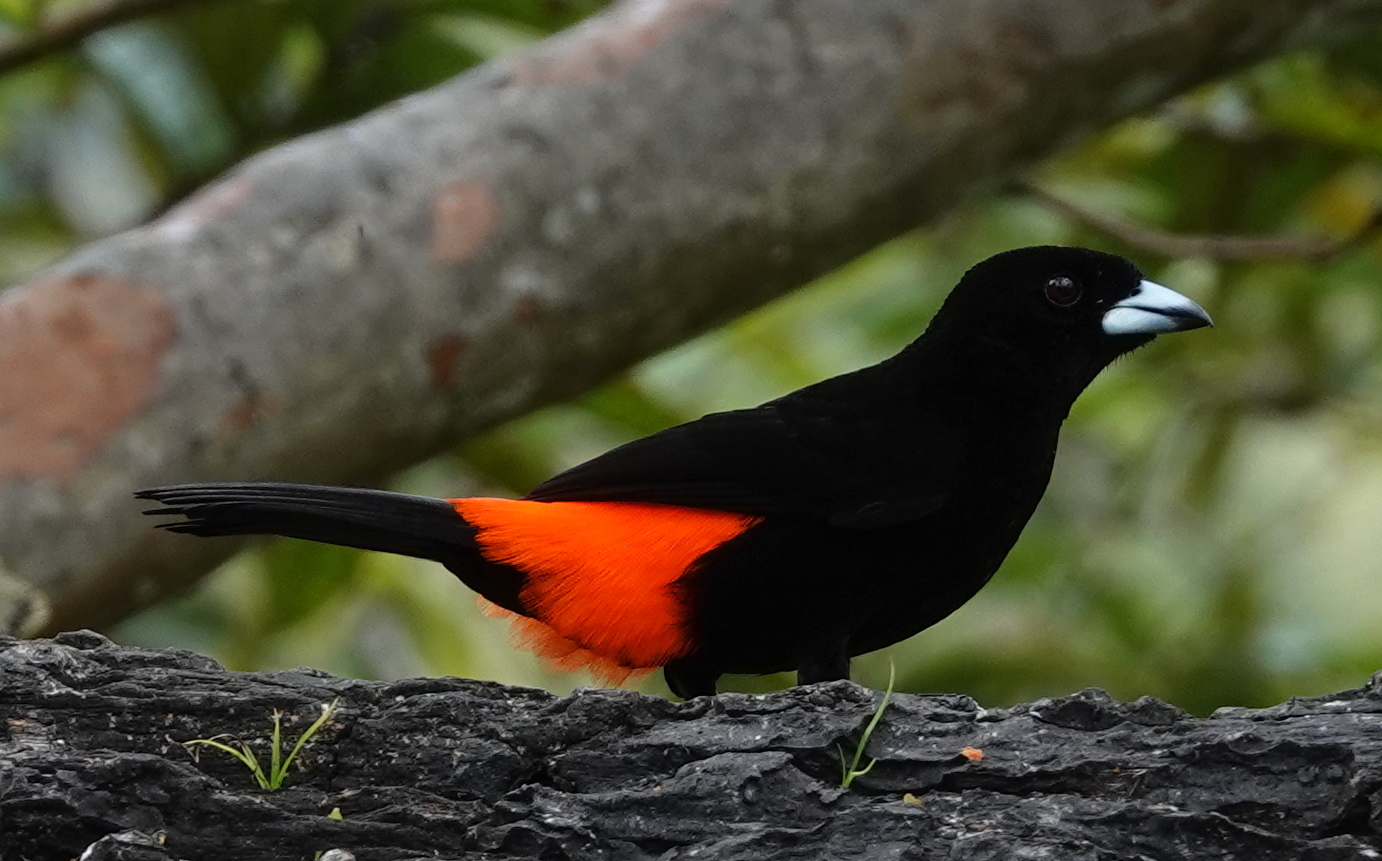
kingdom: Animalia
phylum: Chordata
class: Aves
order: Passeriformes
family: Thraupidae
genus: Ramphocelus
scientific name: Ramphocelus passerinii
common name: Passerini's tanager
